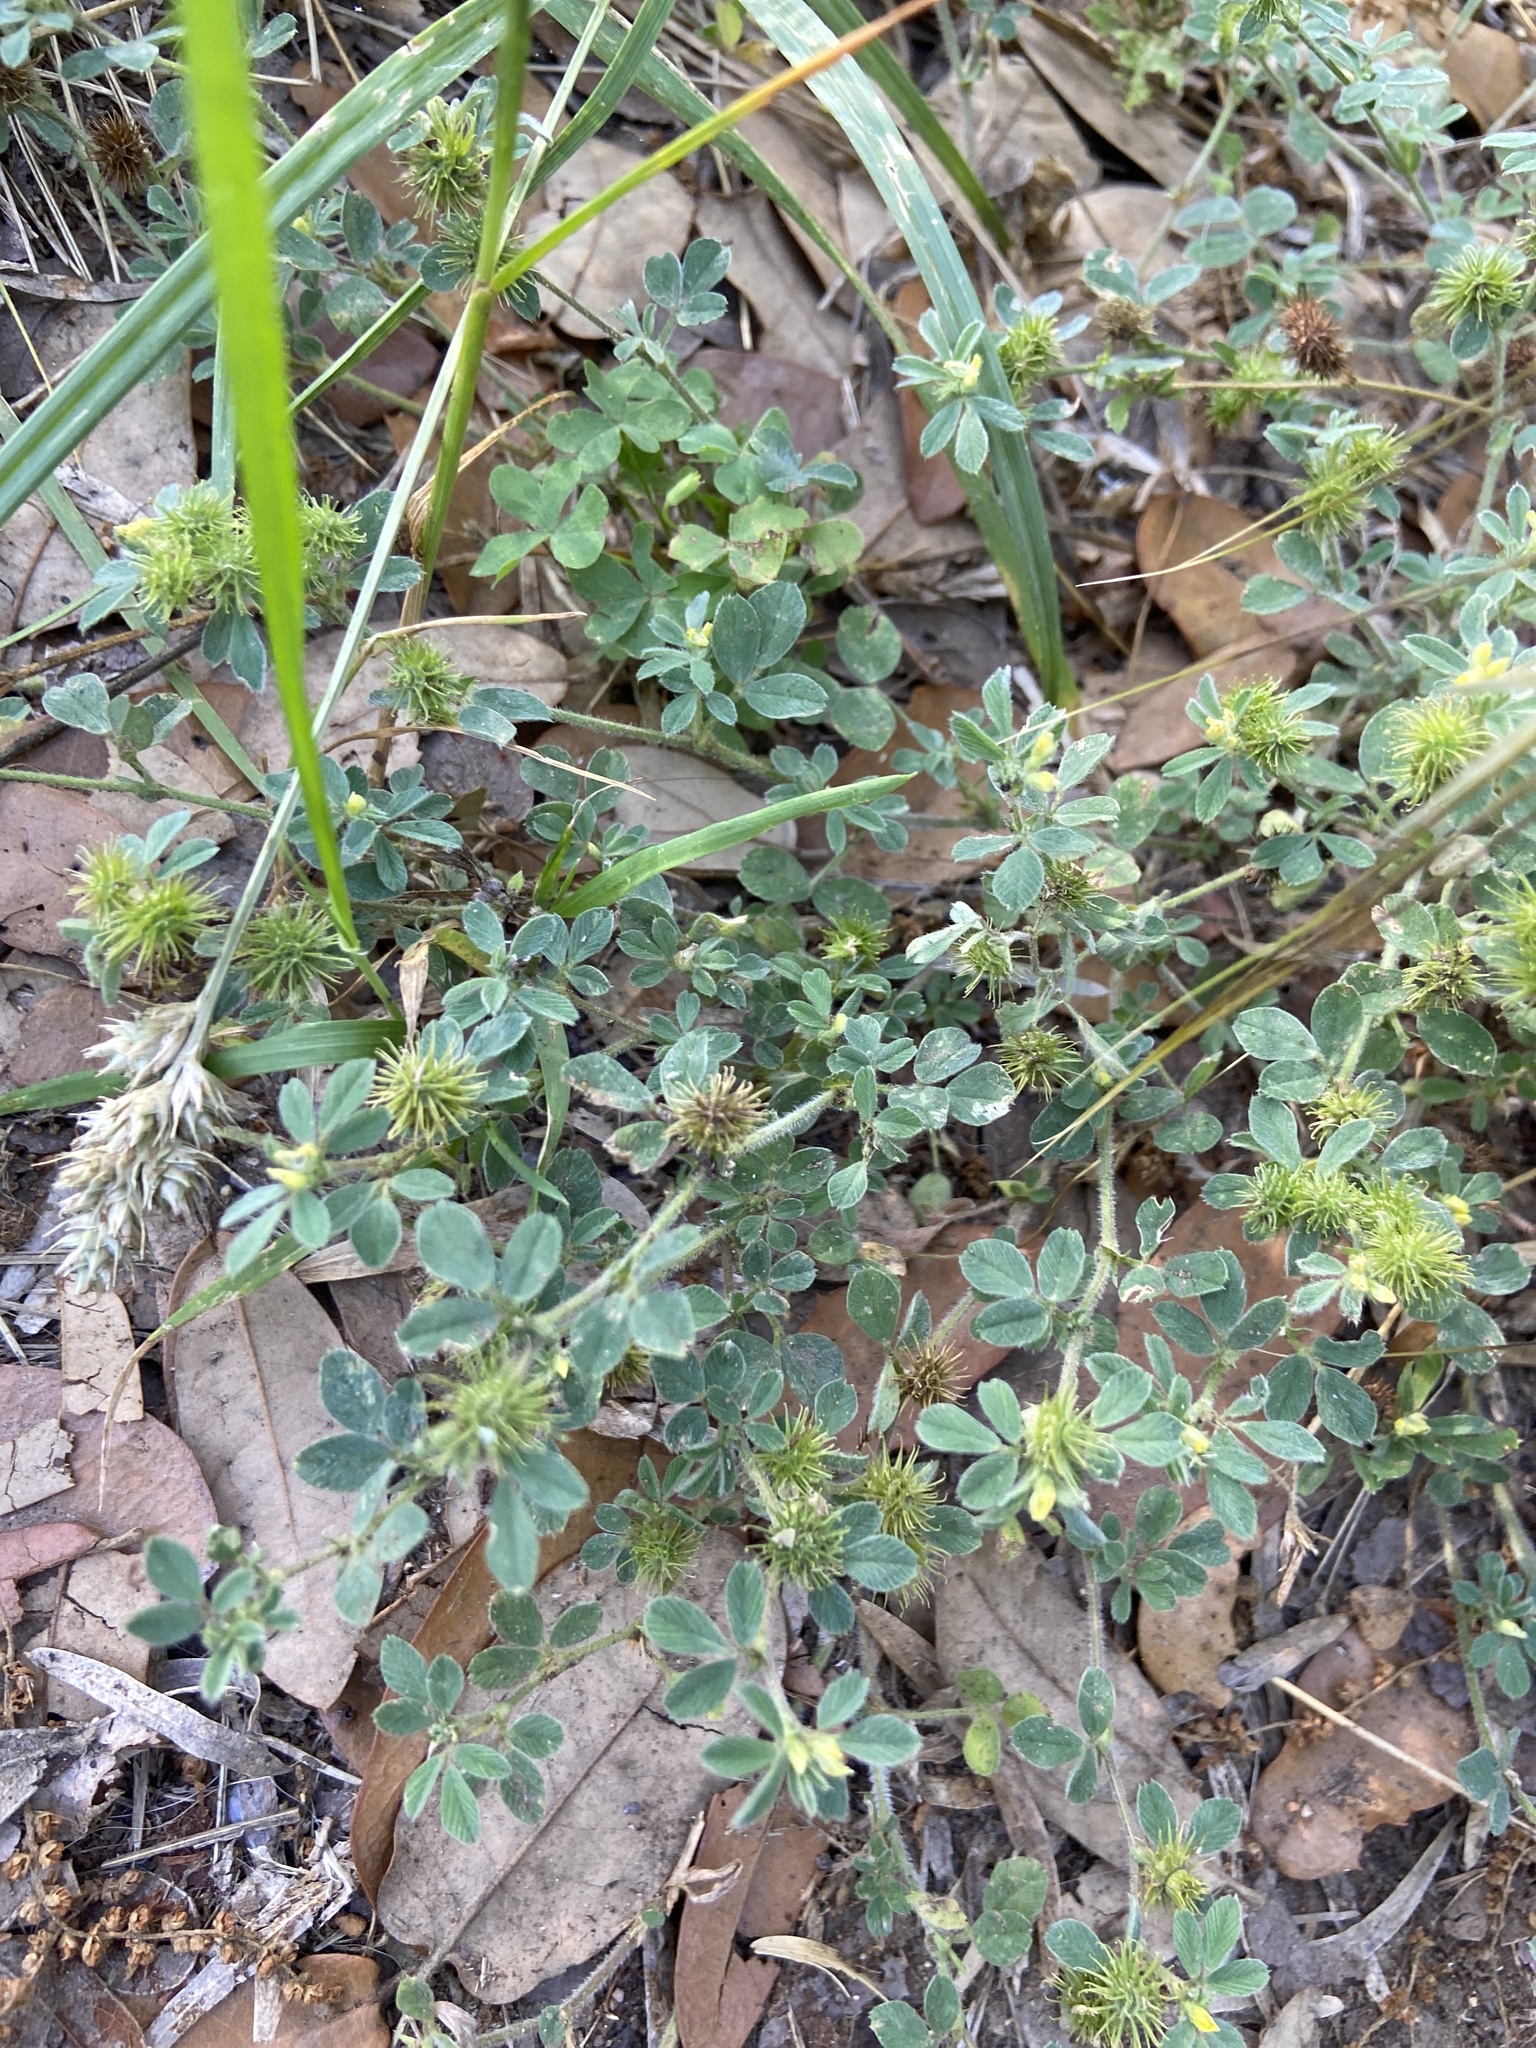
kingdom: Plantae
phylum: Tracheophyta
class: Magnoliopsida
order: Fabales
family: Fabaceae
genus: Medicago
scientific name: Medicago minima
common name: Little bur-clover
